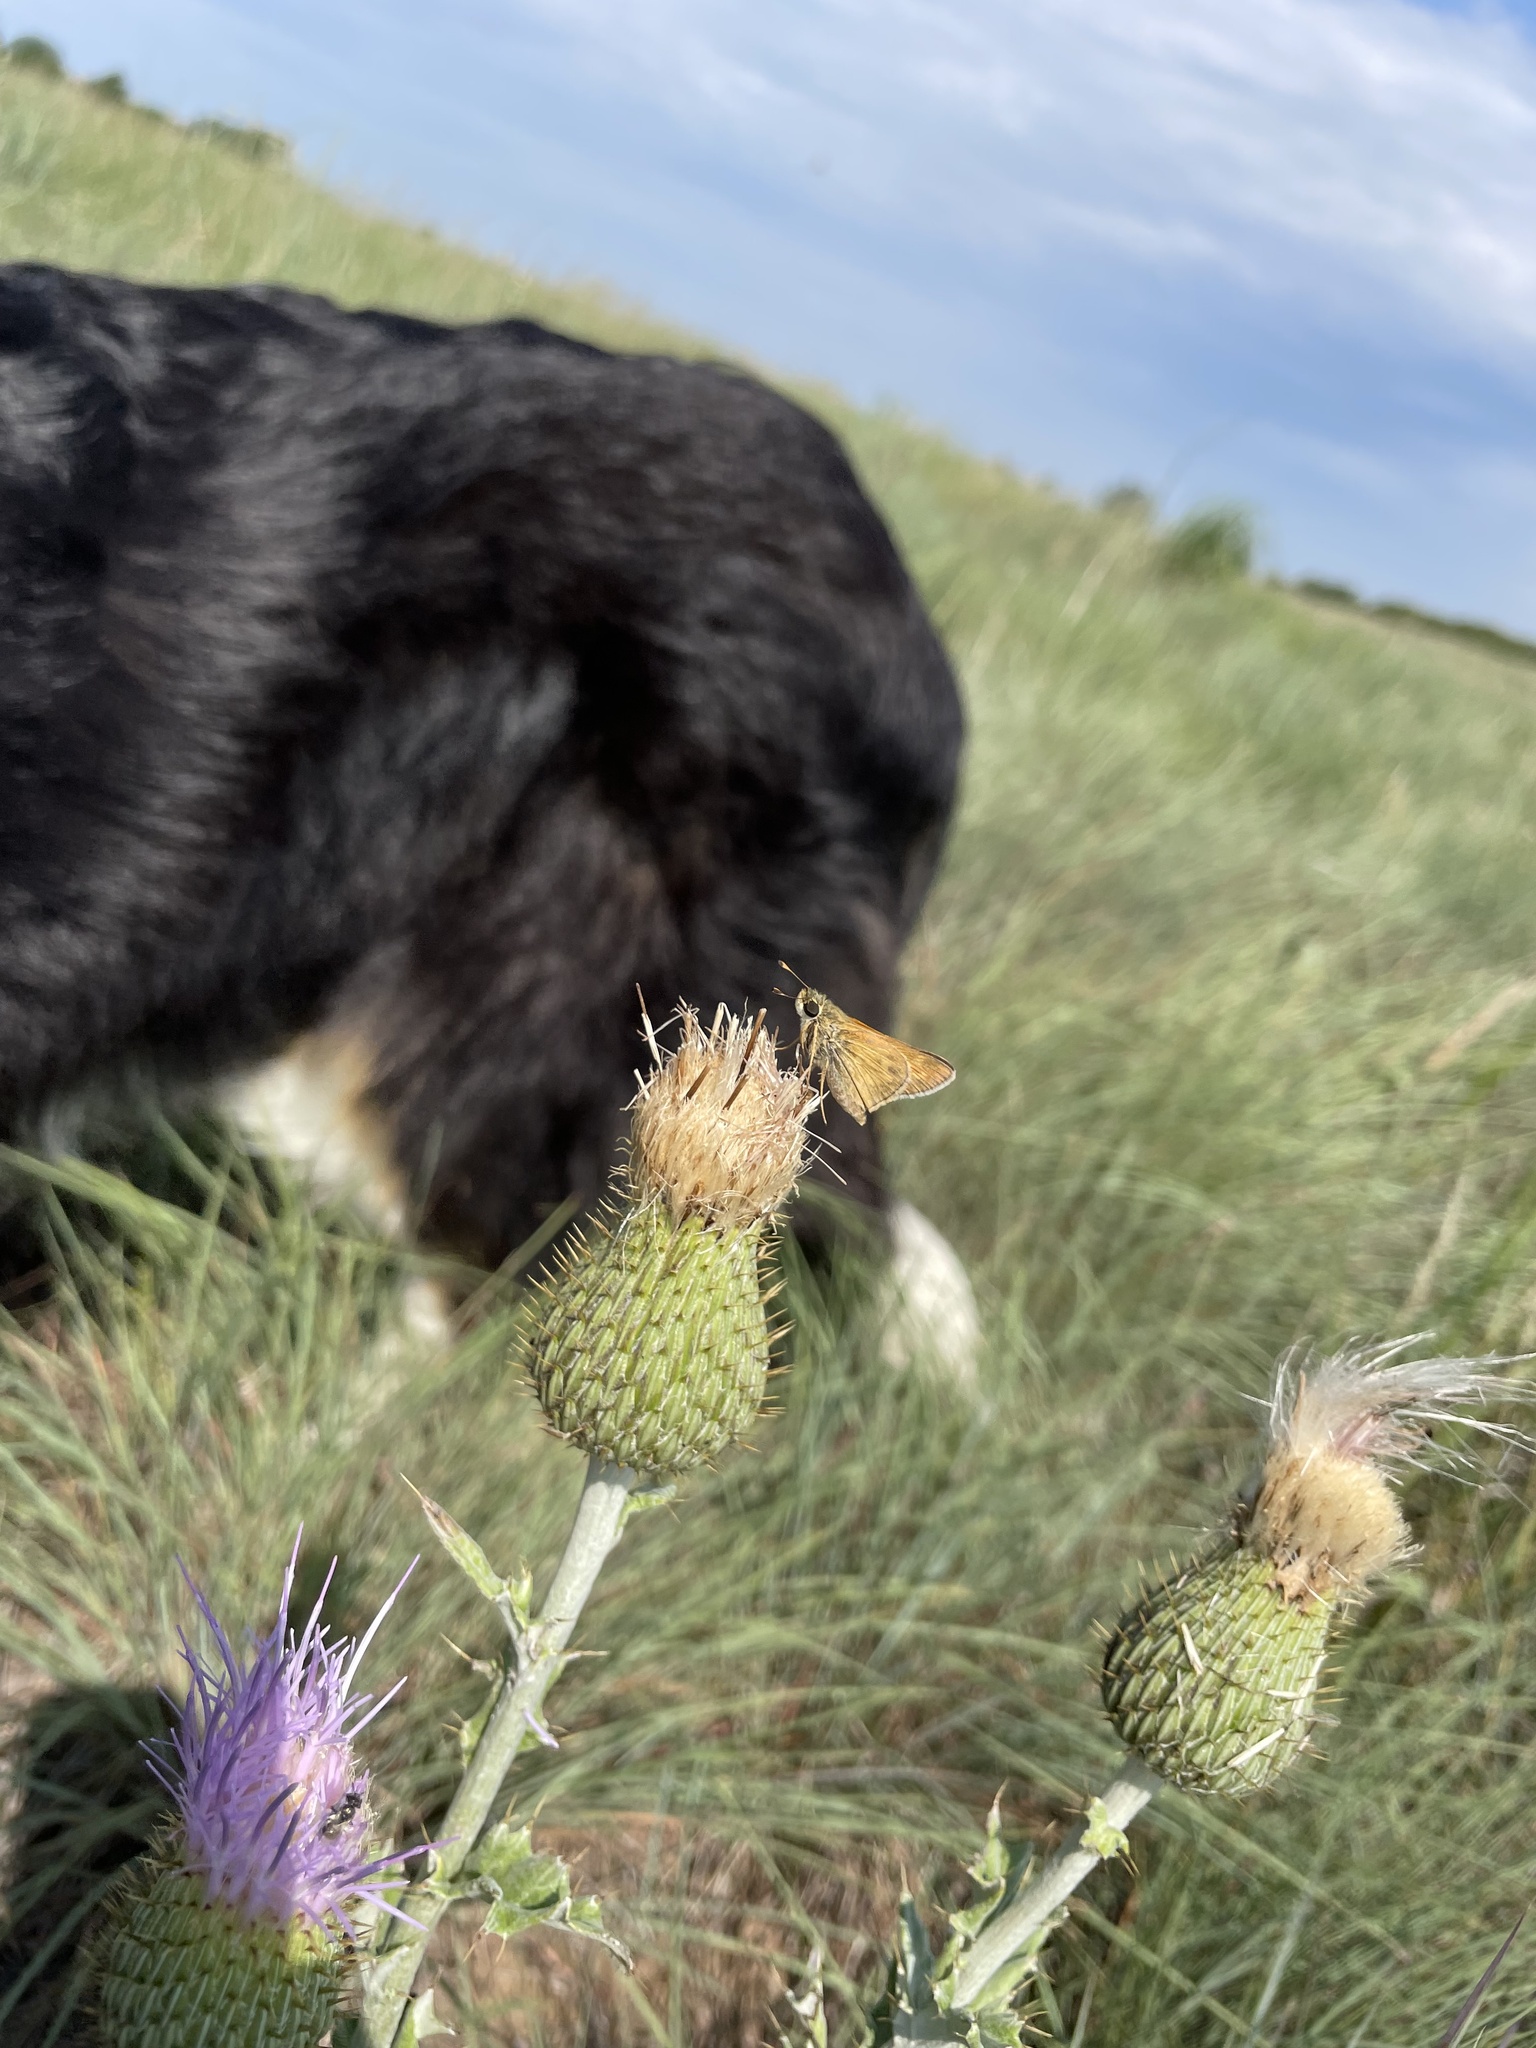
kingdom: Animalia
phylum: Arthropoda
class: Insecta
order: Lepidoptera
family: Hesperiidae
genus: Atalopedes
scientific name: Atalopedes
